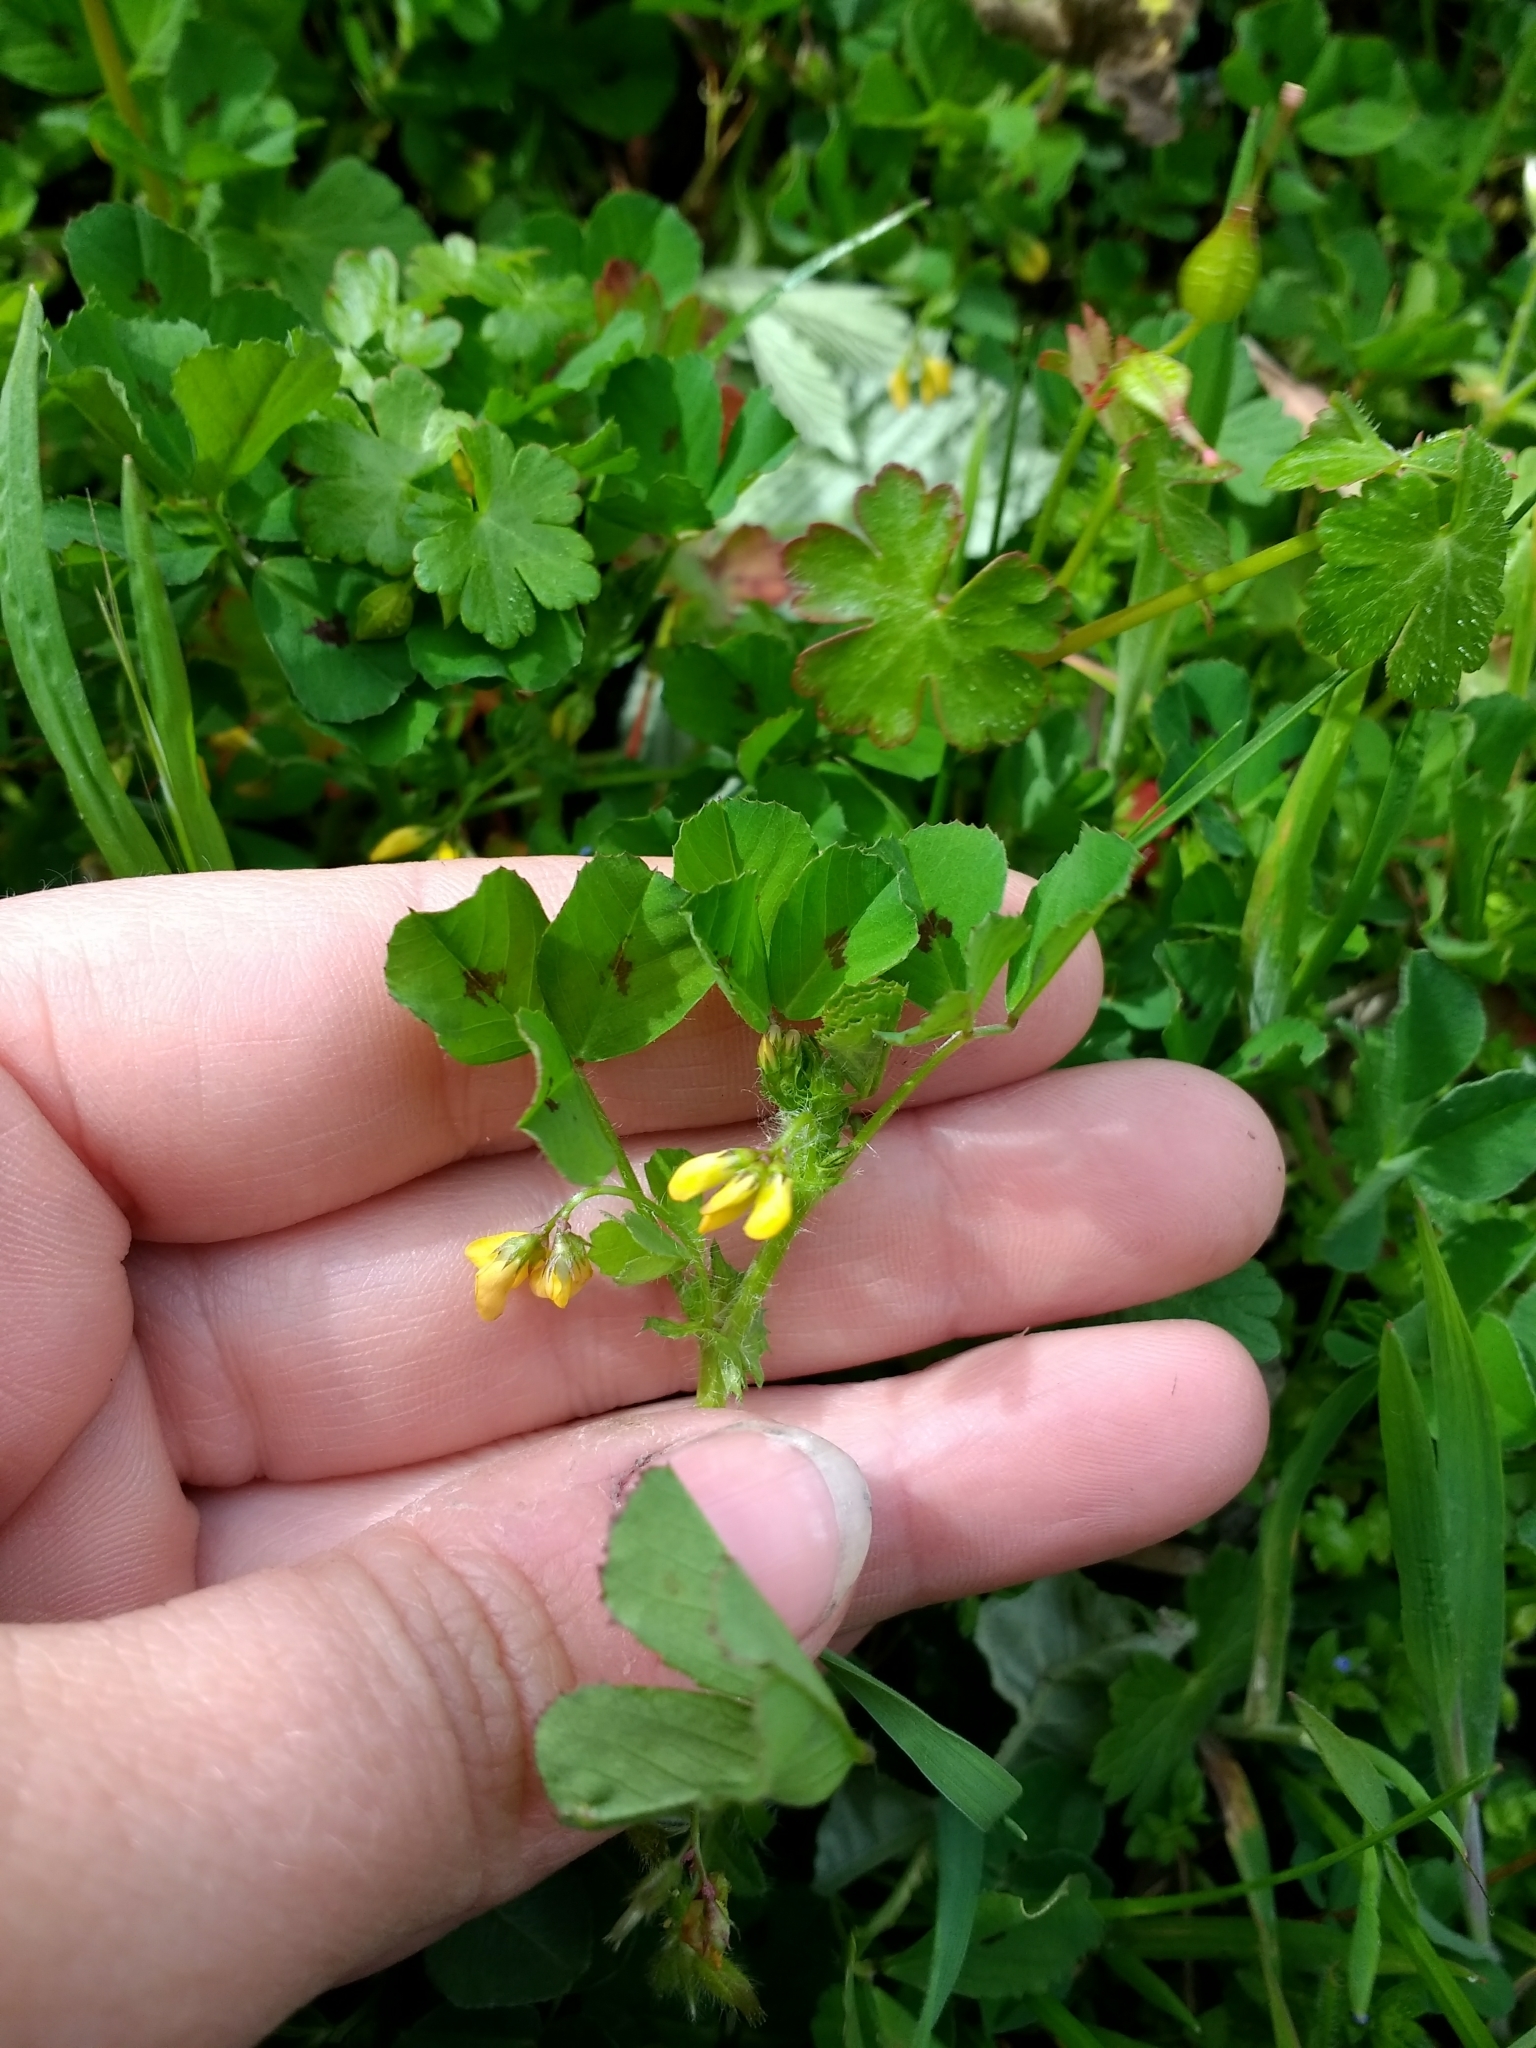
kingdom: Plantae
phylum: Tracheophyta
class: Magnoliopsida
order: Fabales
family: Fabaceae
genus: Medicago
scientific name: Medicago arabica
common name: Spotted medick
